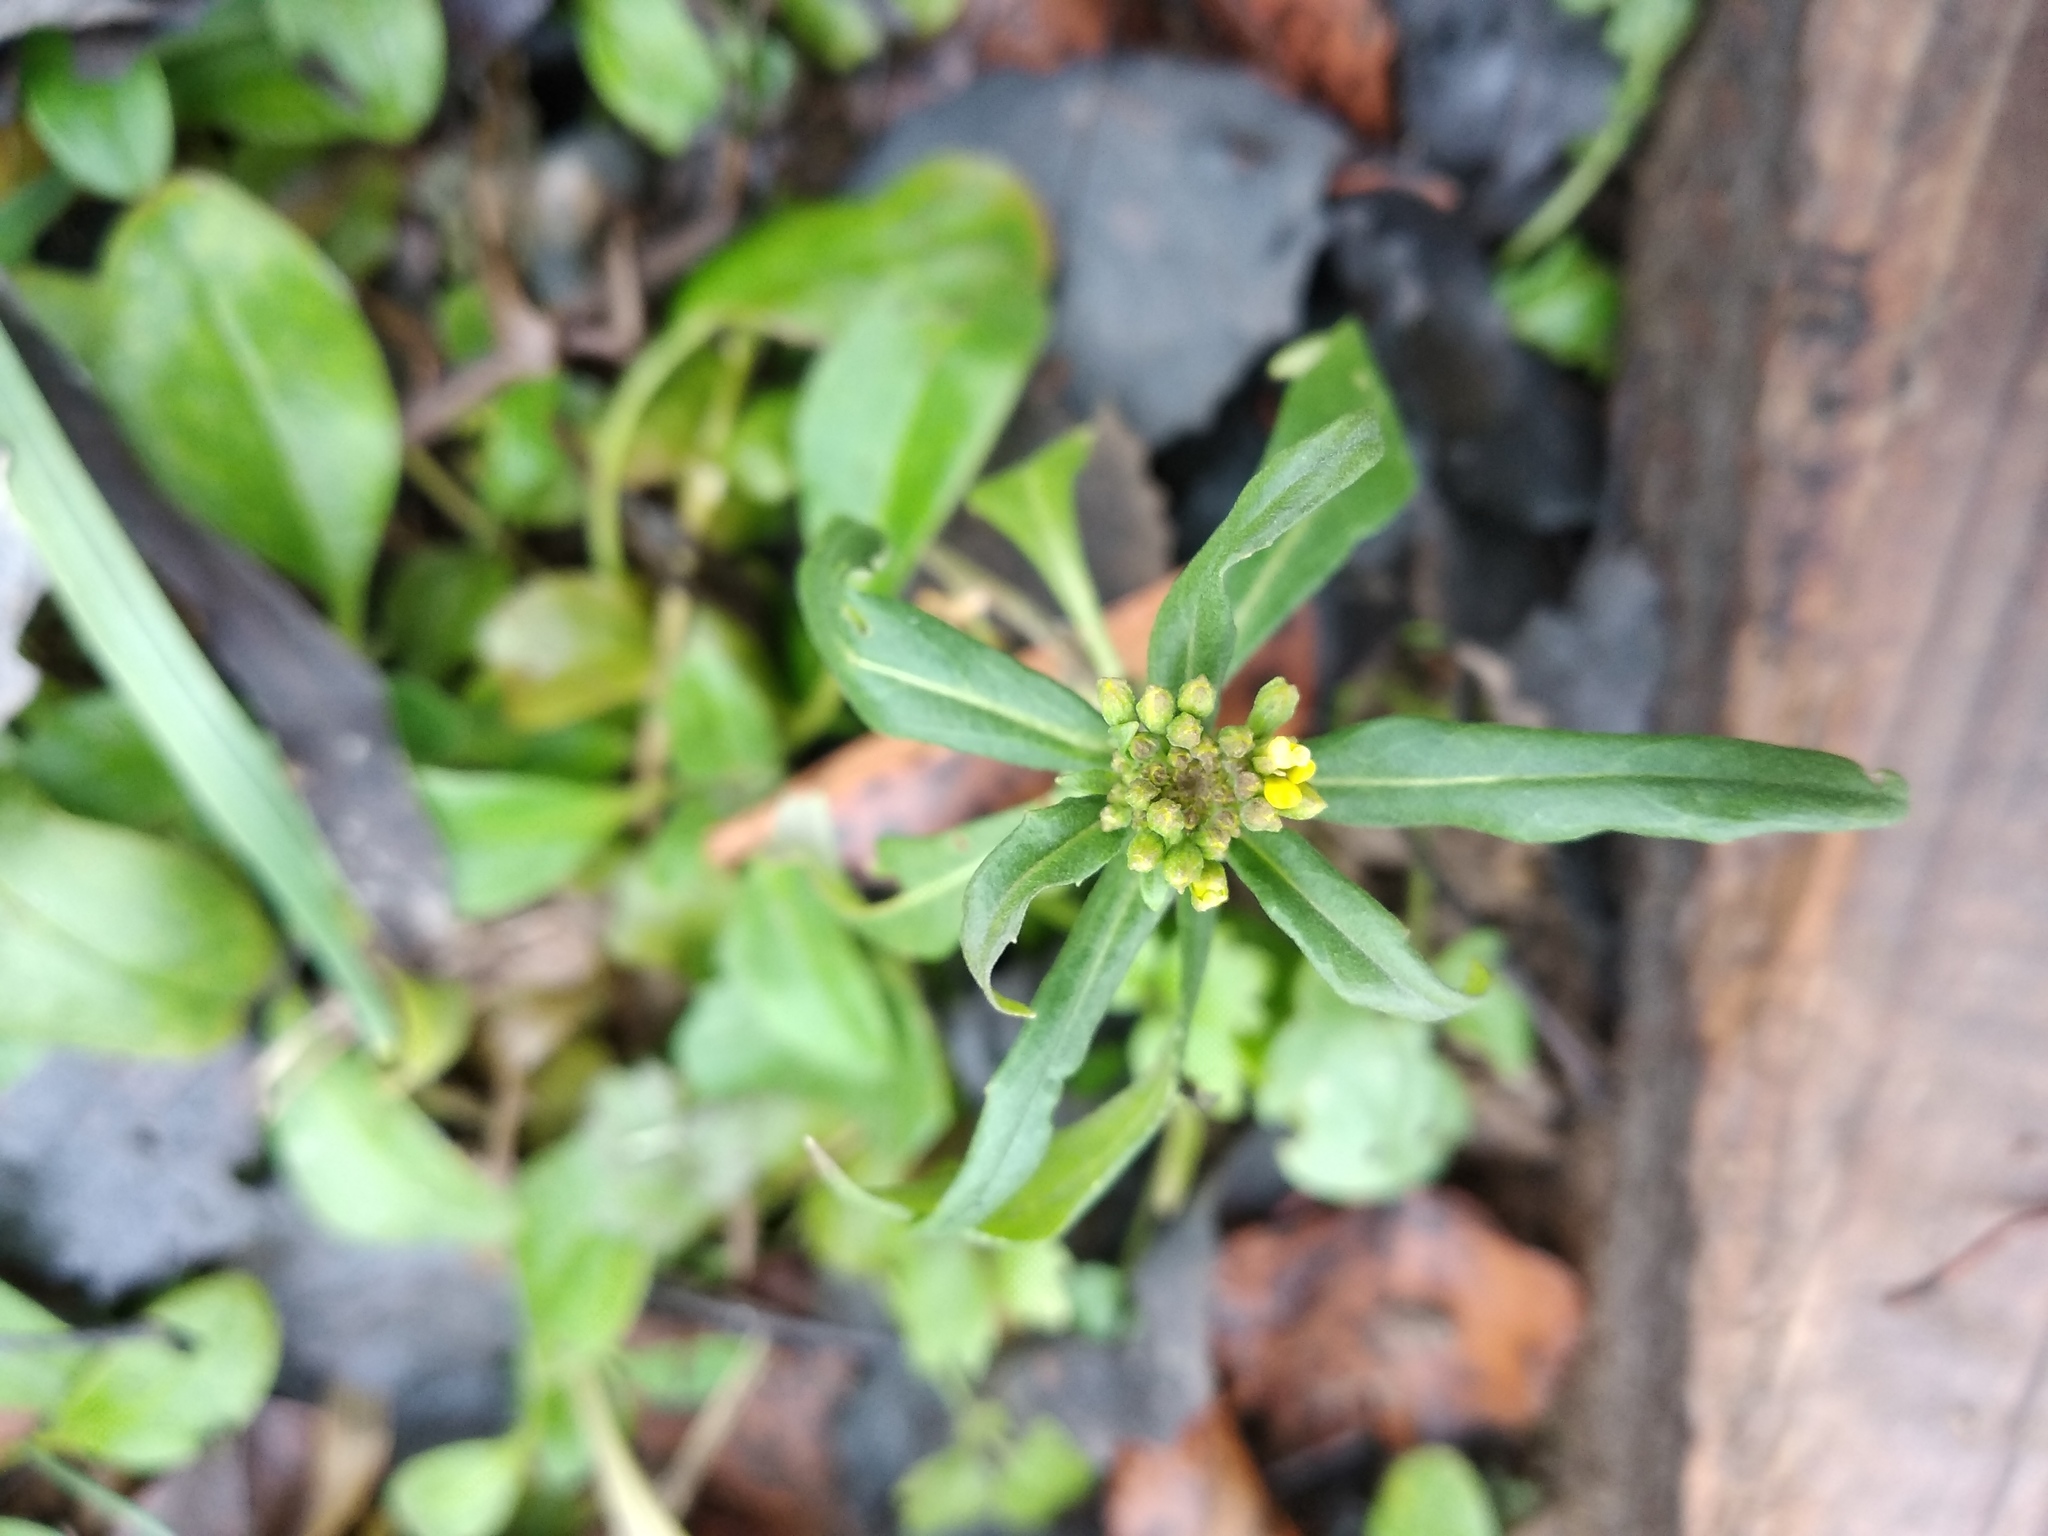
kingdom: Plantae
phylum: Tracheophyta
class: Magnoliopsida
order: Brassicales
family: Brassicaceae
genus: Erysimum
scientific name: Erysimum cheiranthoides
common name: Treacle mustard
